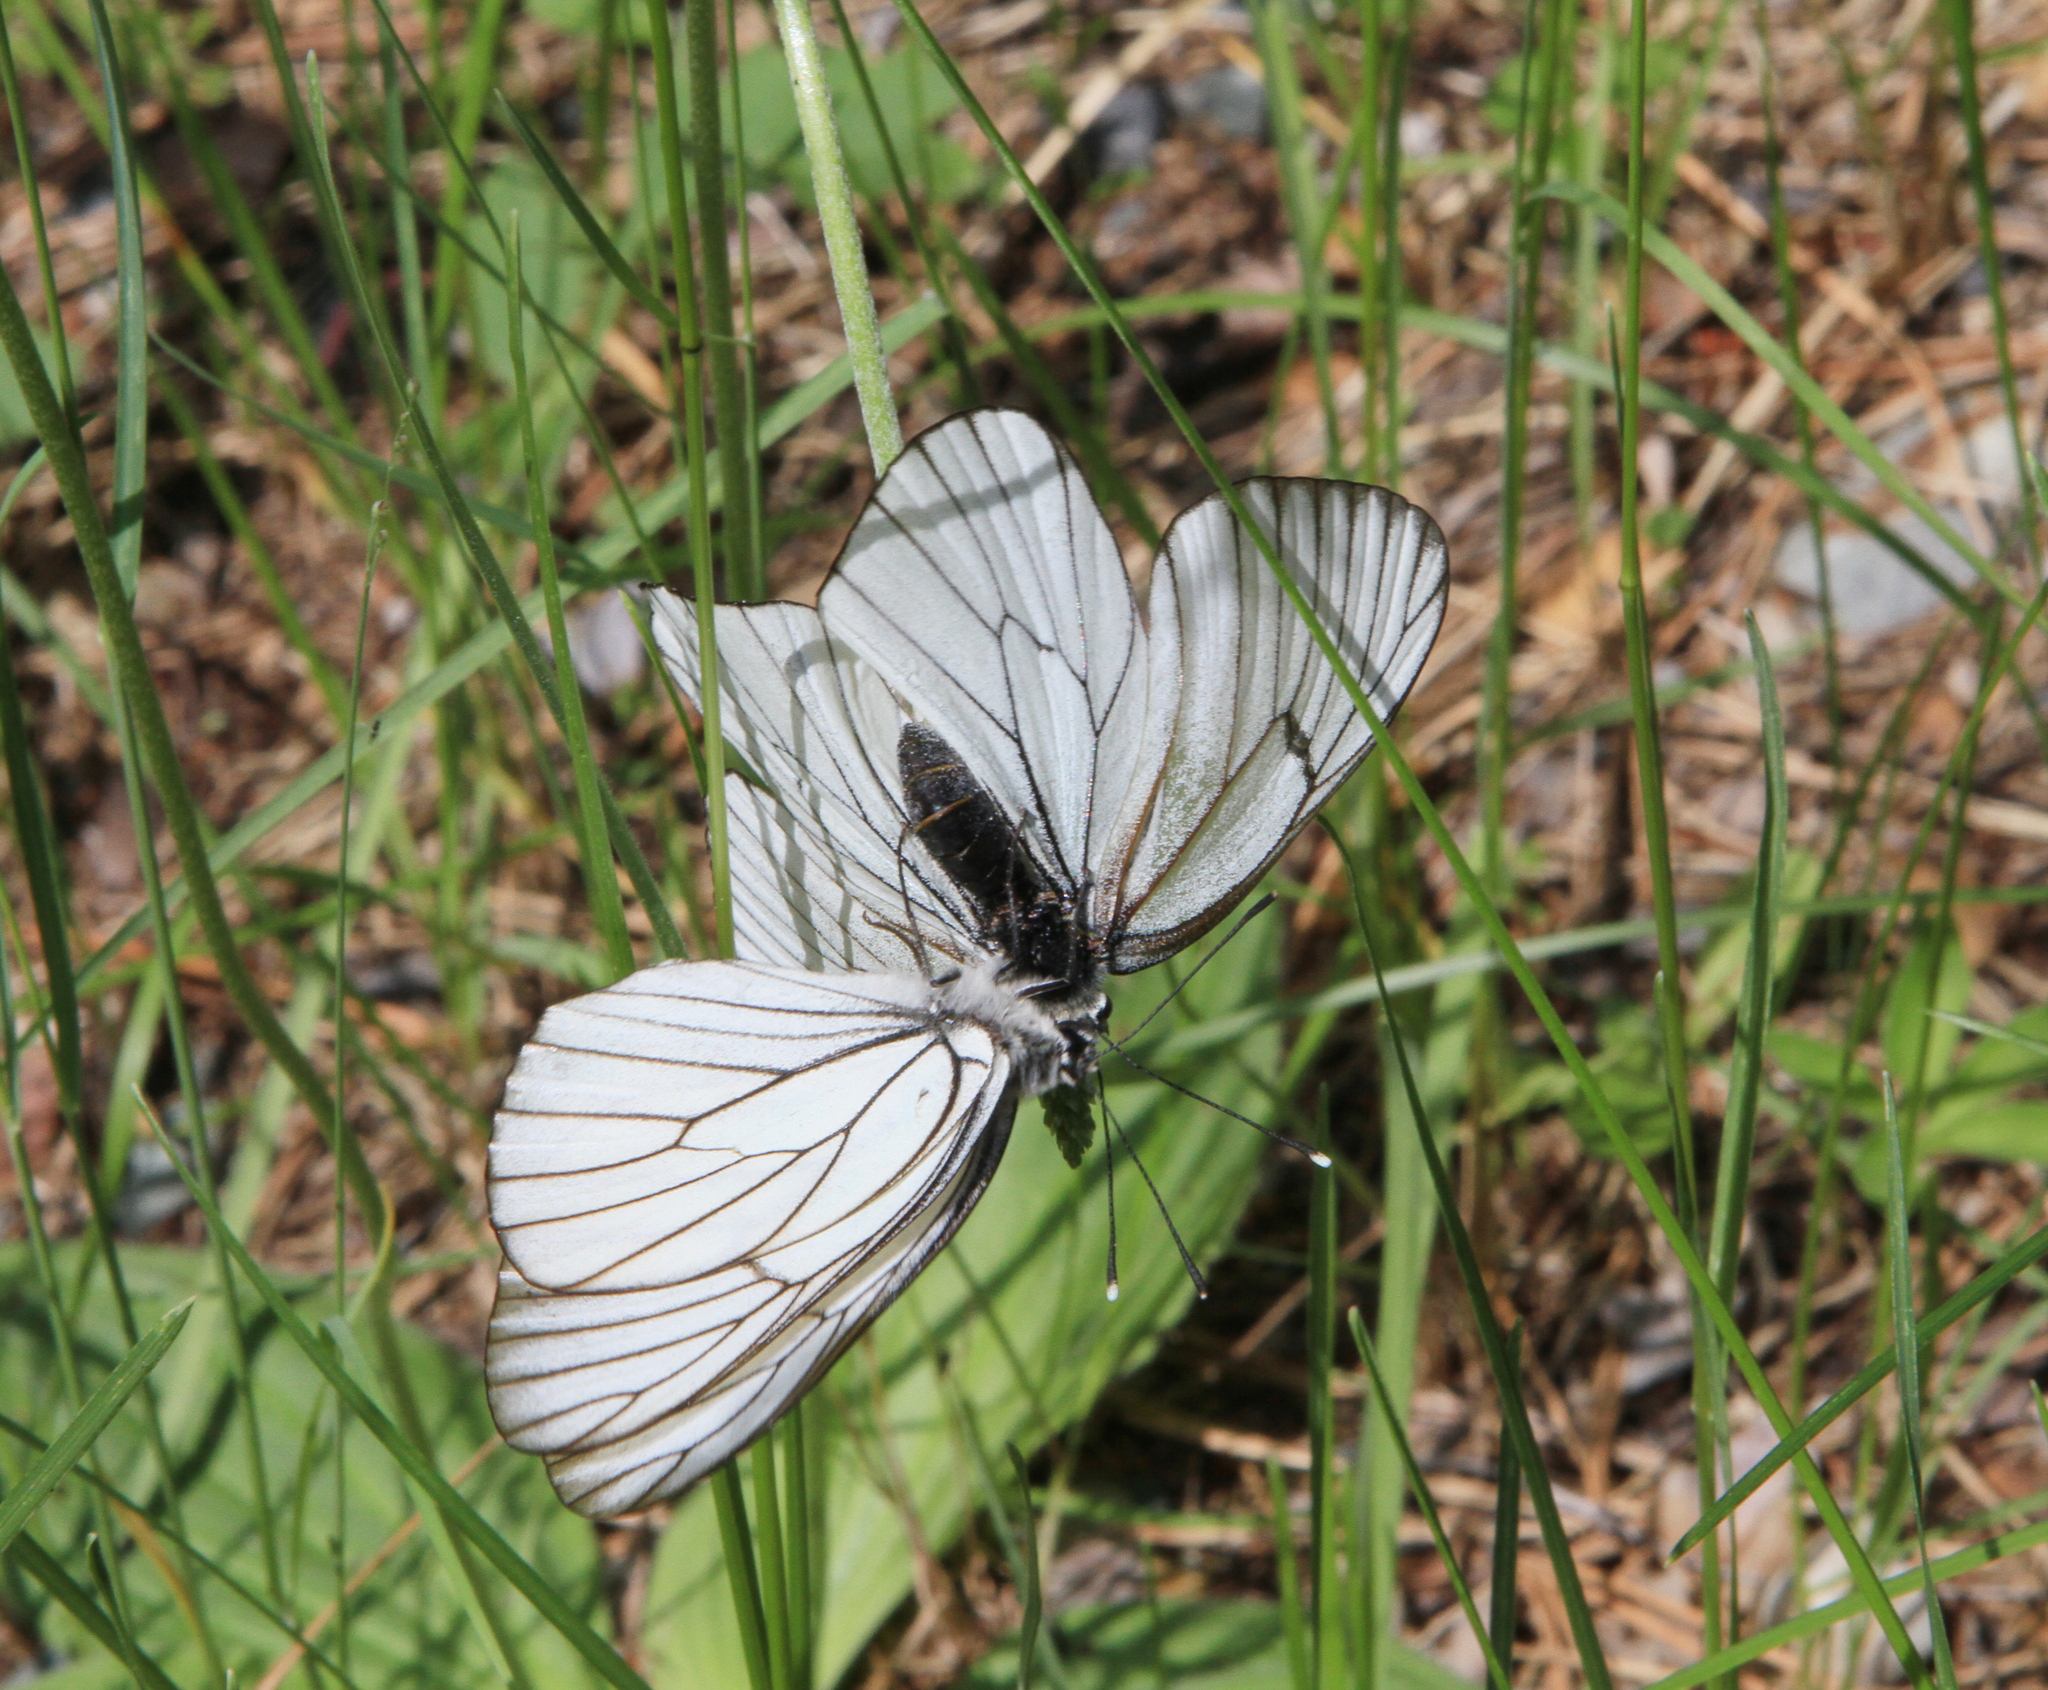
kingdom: Animalia
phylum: Arthropoda
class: Insecta
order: Lepidoptera
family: Pieridae
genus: Aporia
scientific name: Aporia crataegi
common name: Black-veined white
